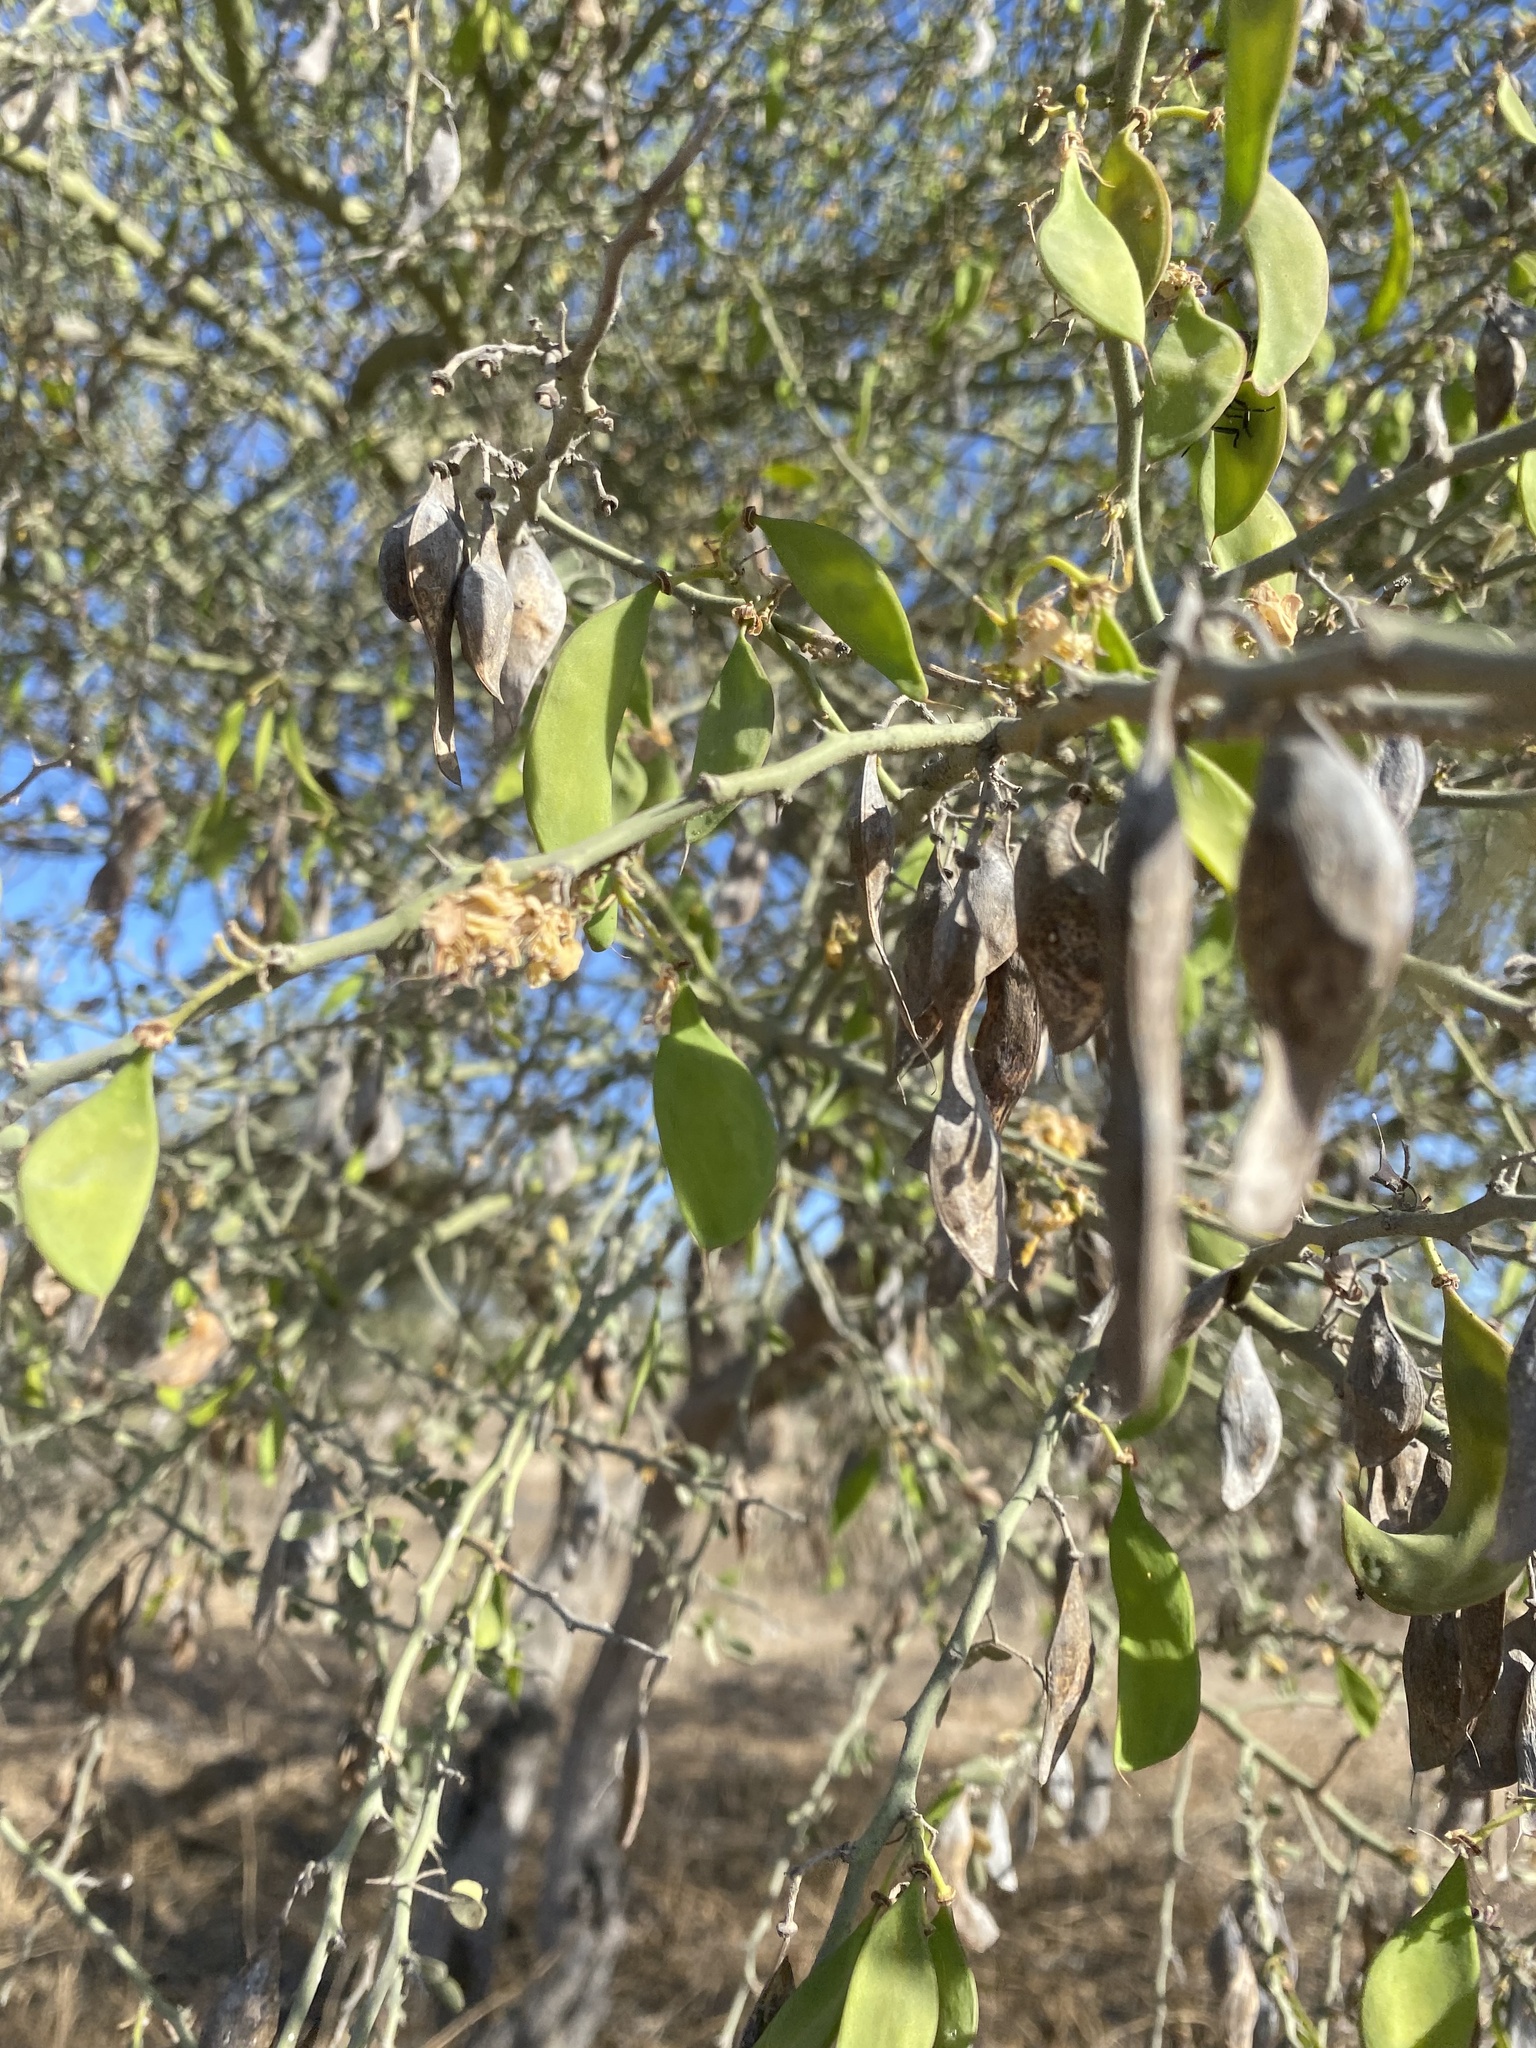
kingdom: Plantae
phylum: Tracheophyta
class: Magnoliopsida
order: Fabales
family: Fabaceae
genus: Parkinsonia
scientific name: Parkinsonia florida
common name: Blue paloverde
